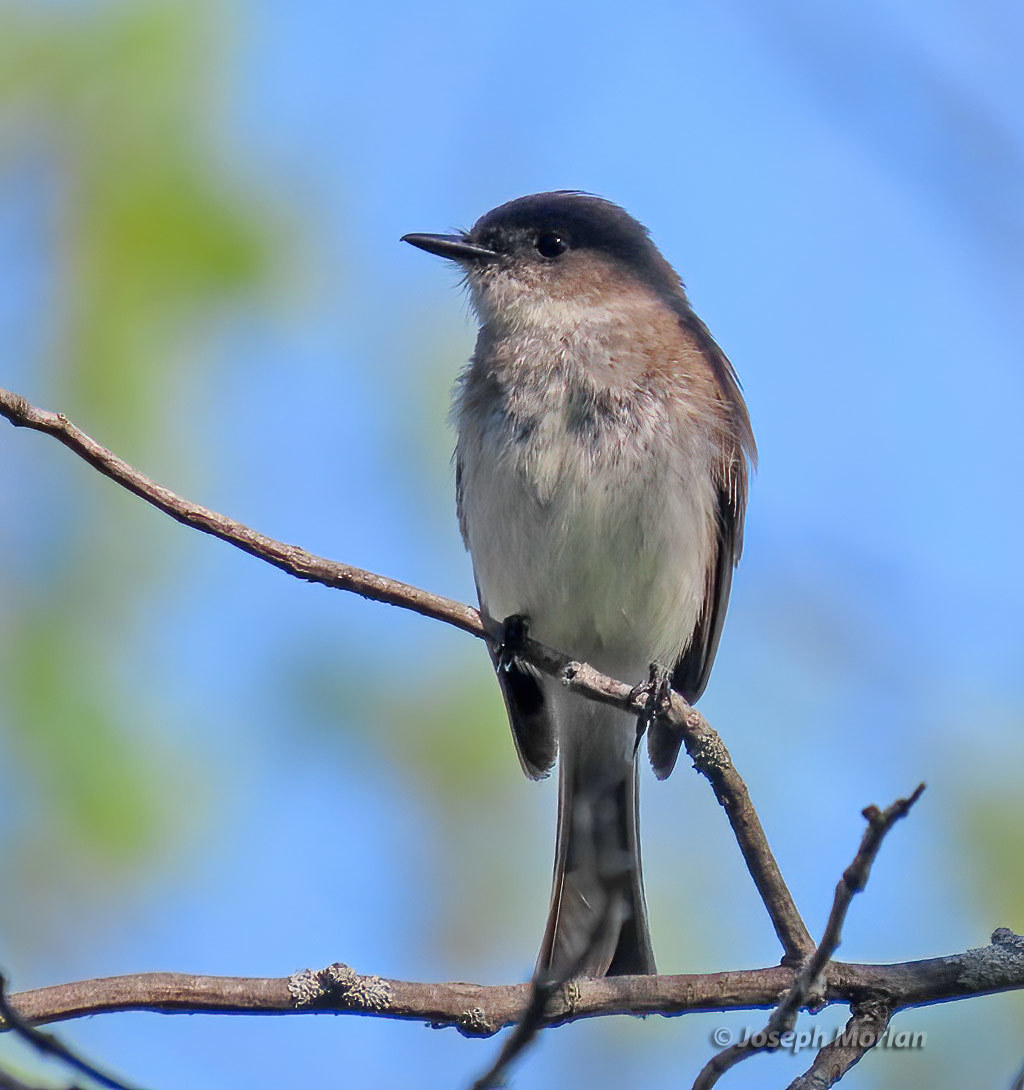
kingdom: Animalia
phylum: Chordata
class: Aves
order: Passeriformes
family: Tyrannidae
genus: Sayornis
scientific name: Sayornis phoebe
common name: Eastern phoebe
